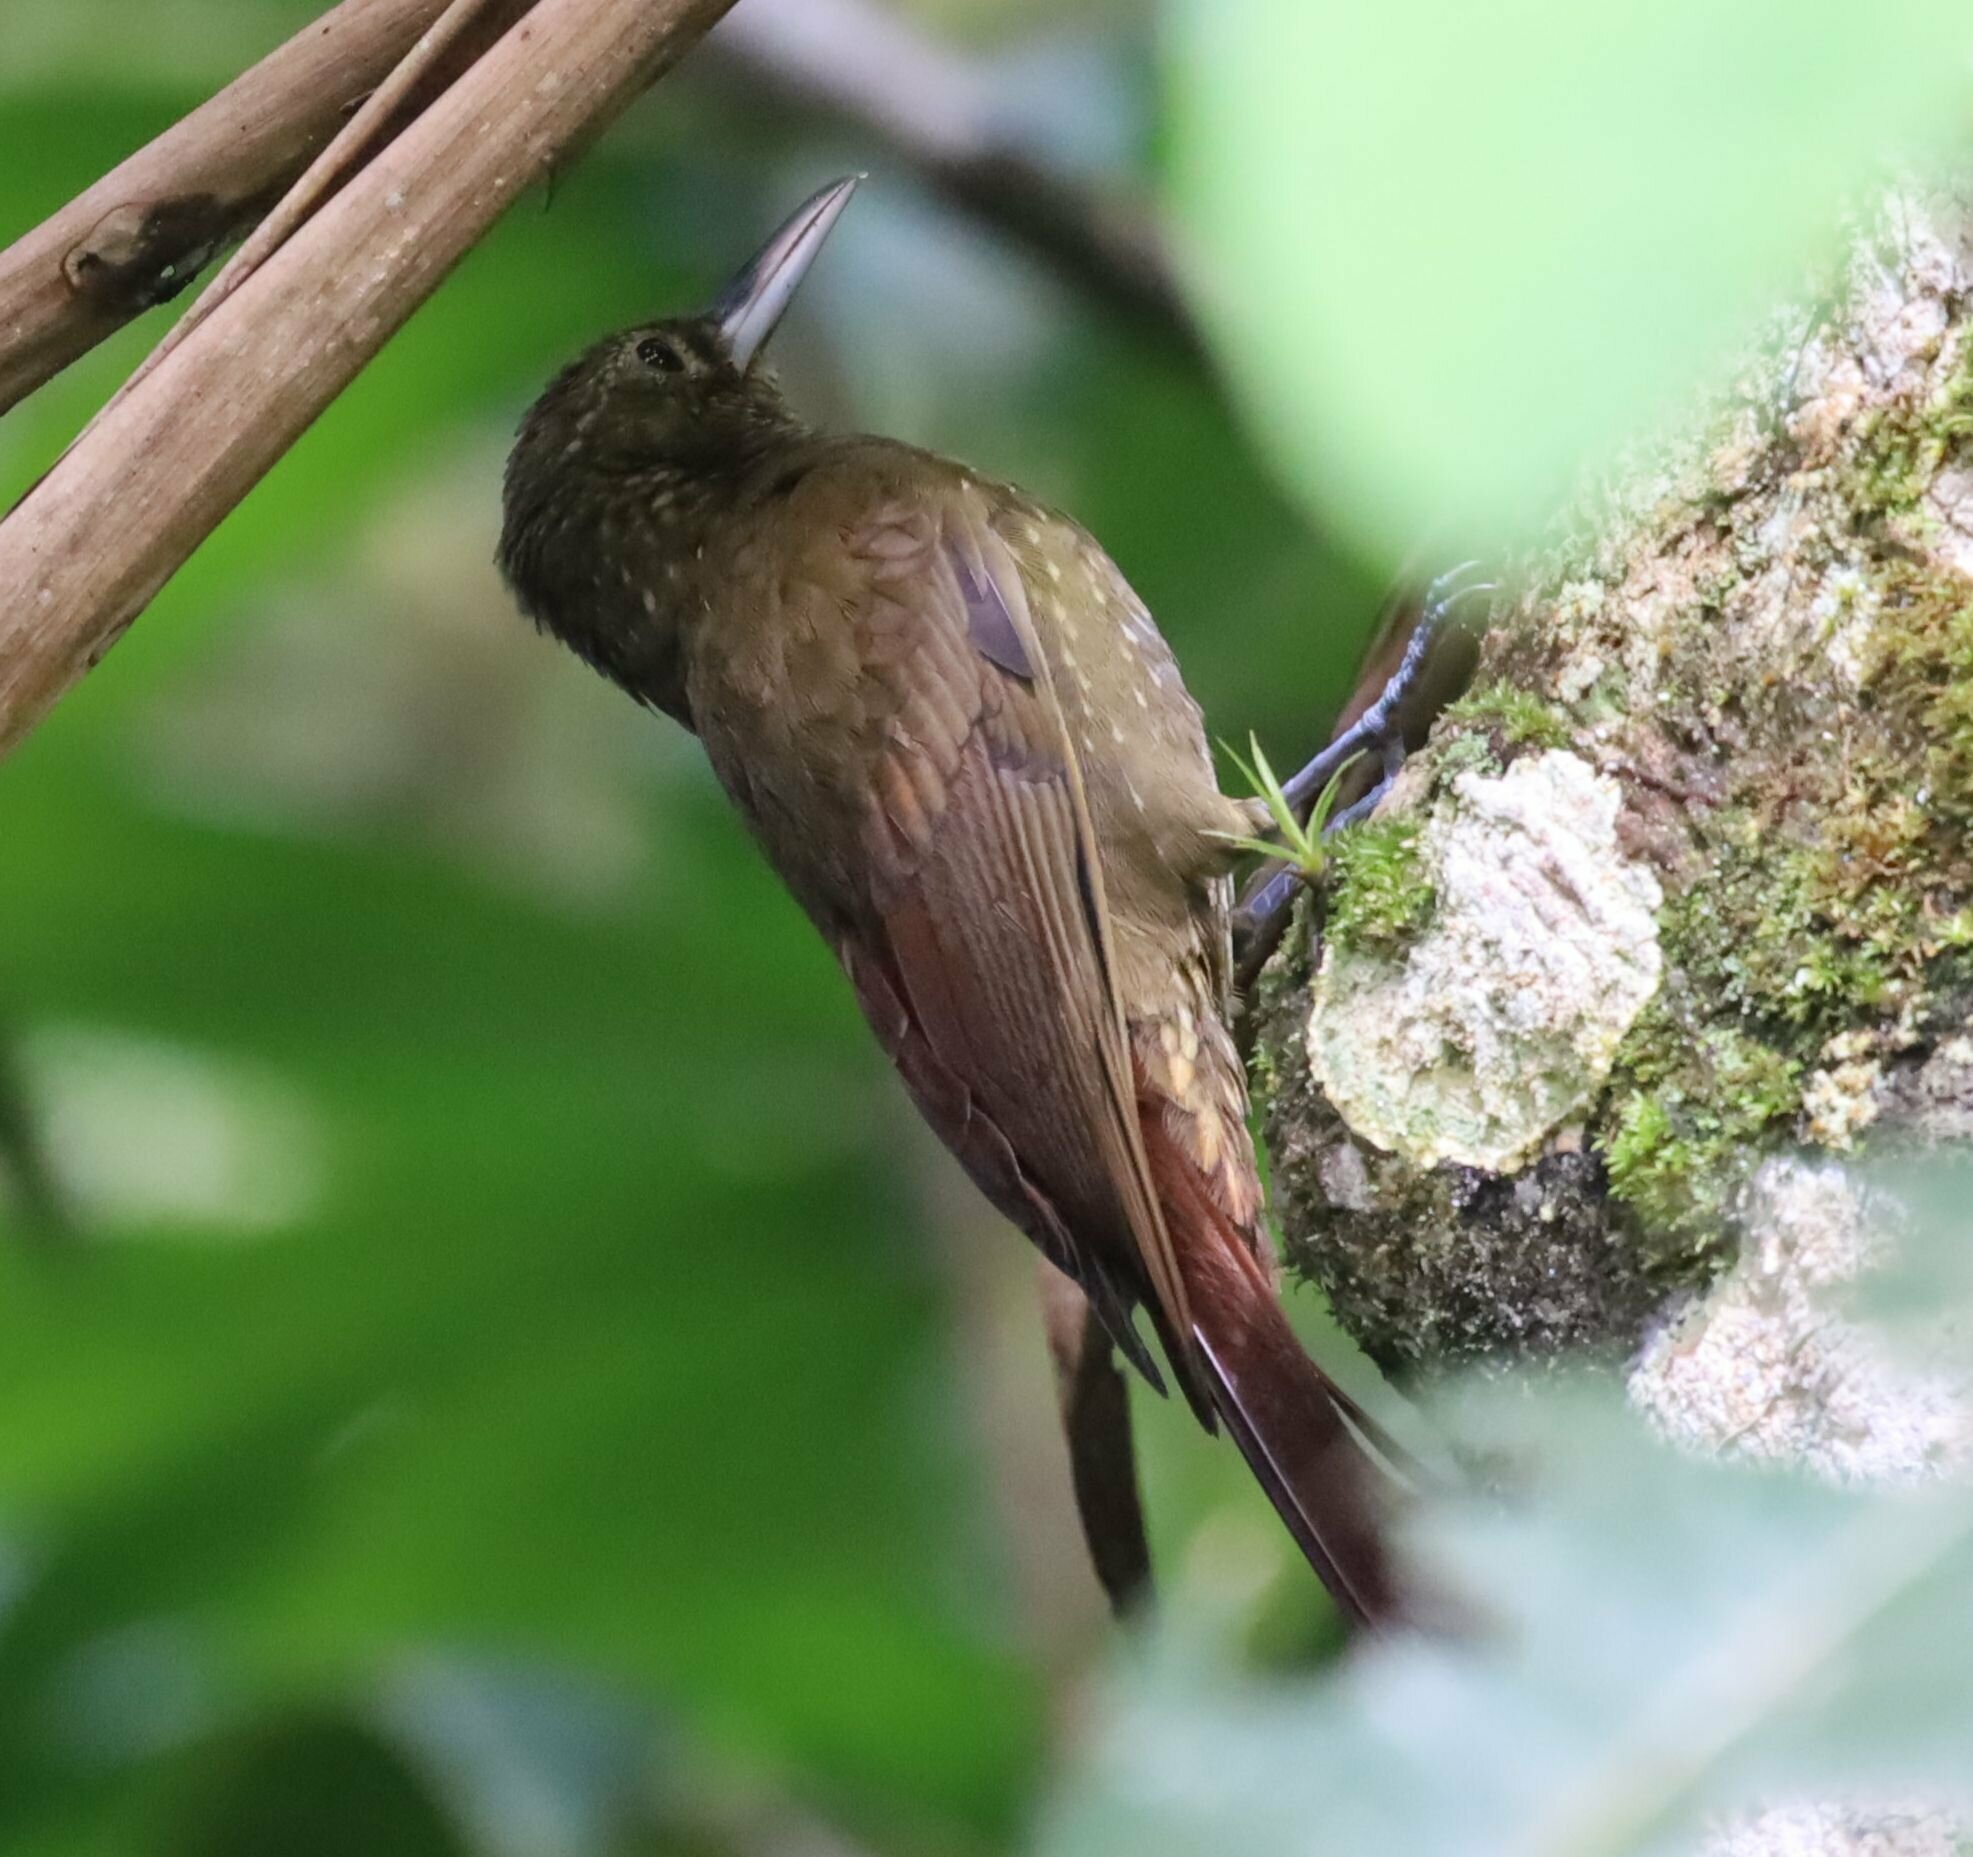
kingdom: Animalia
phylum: Chordata
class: Aves
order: Passeriformes
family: Furnariidae
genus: Xiphorhynchus
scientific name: Xiphorhynchus erythropygius
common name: Spotted woodcreeper
